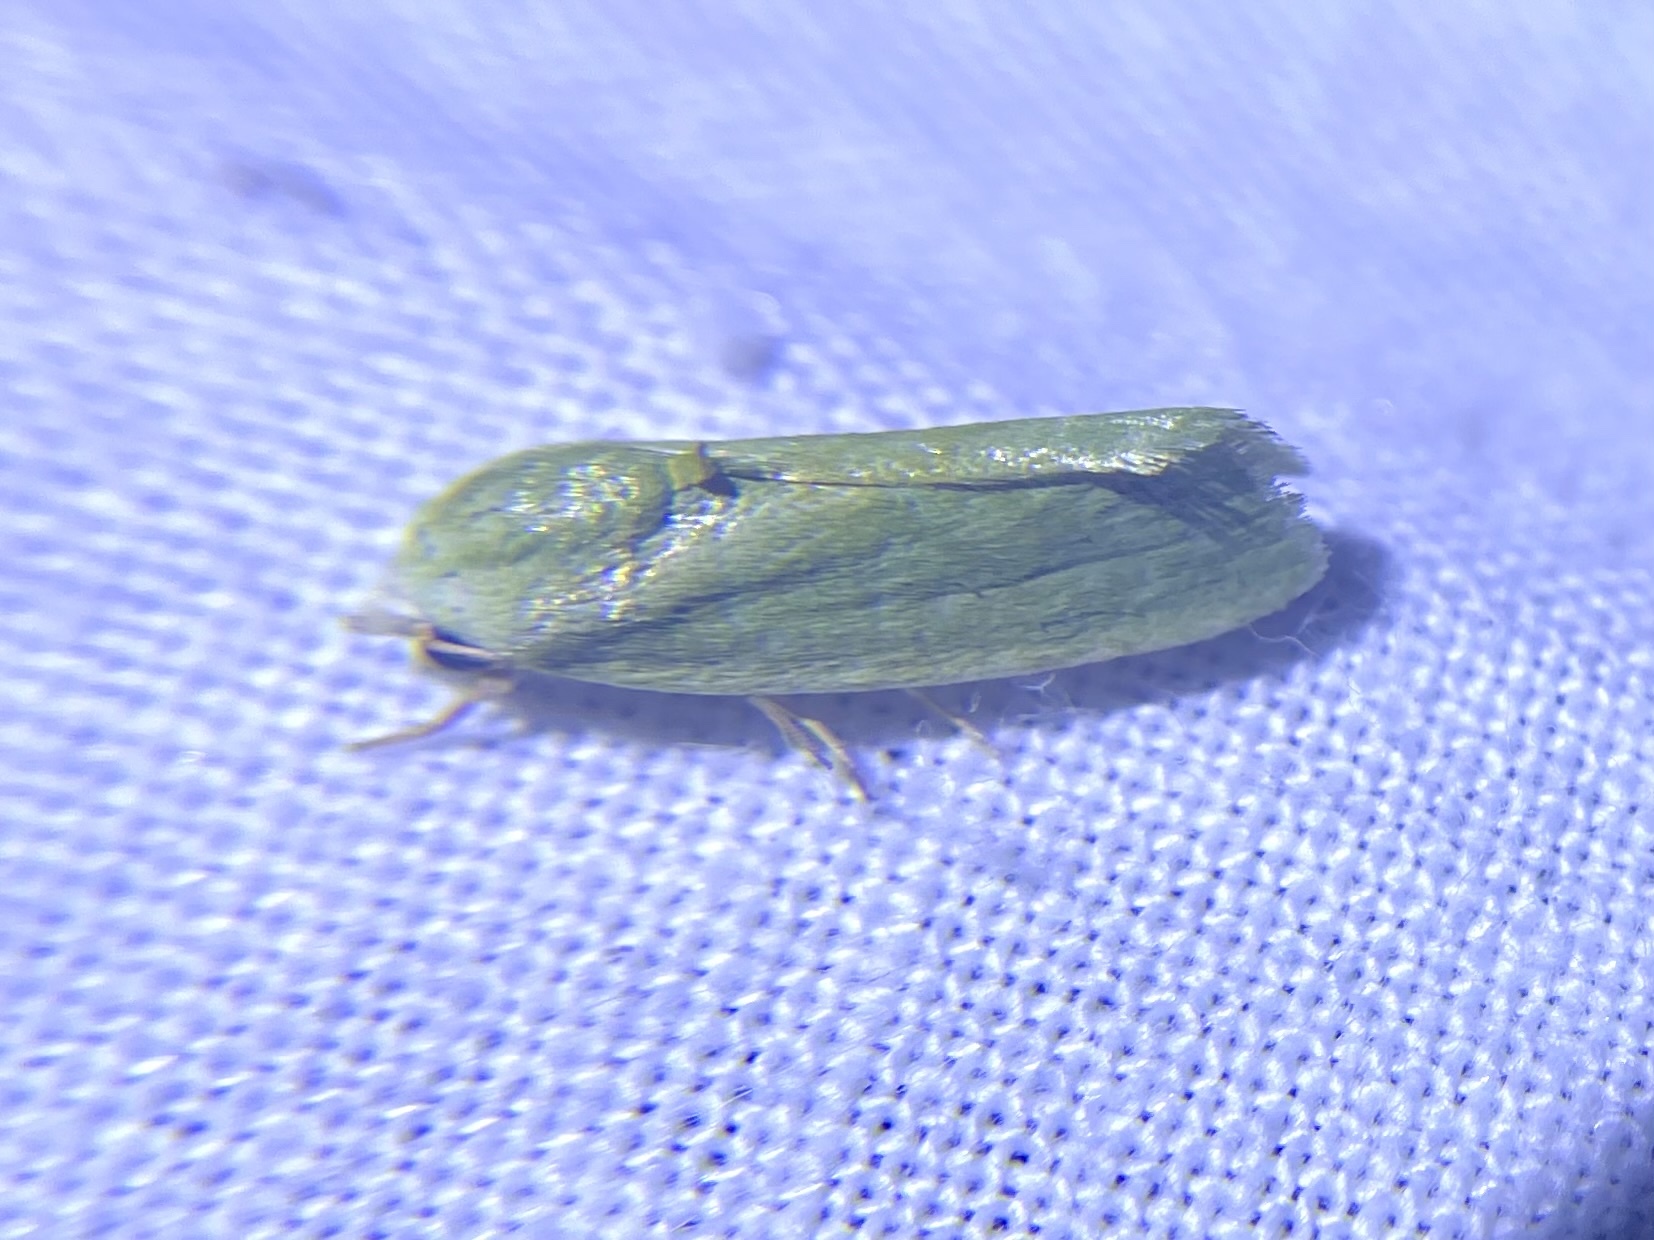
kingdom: Animalia
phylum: Arthropoda
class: Insecta
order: Lepidoptera
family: Nolidae
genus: Earias
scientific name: Earias insulana
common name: Egyptian bollworm
